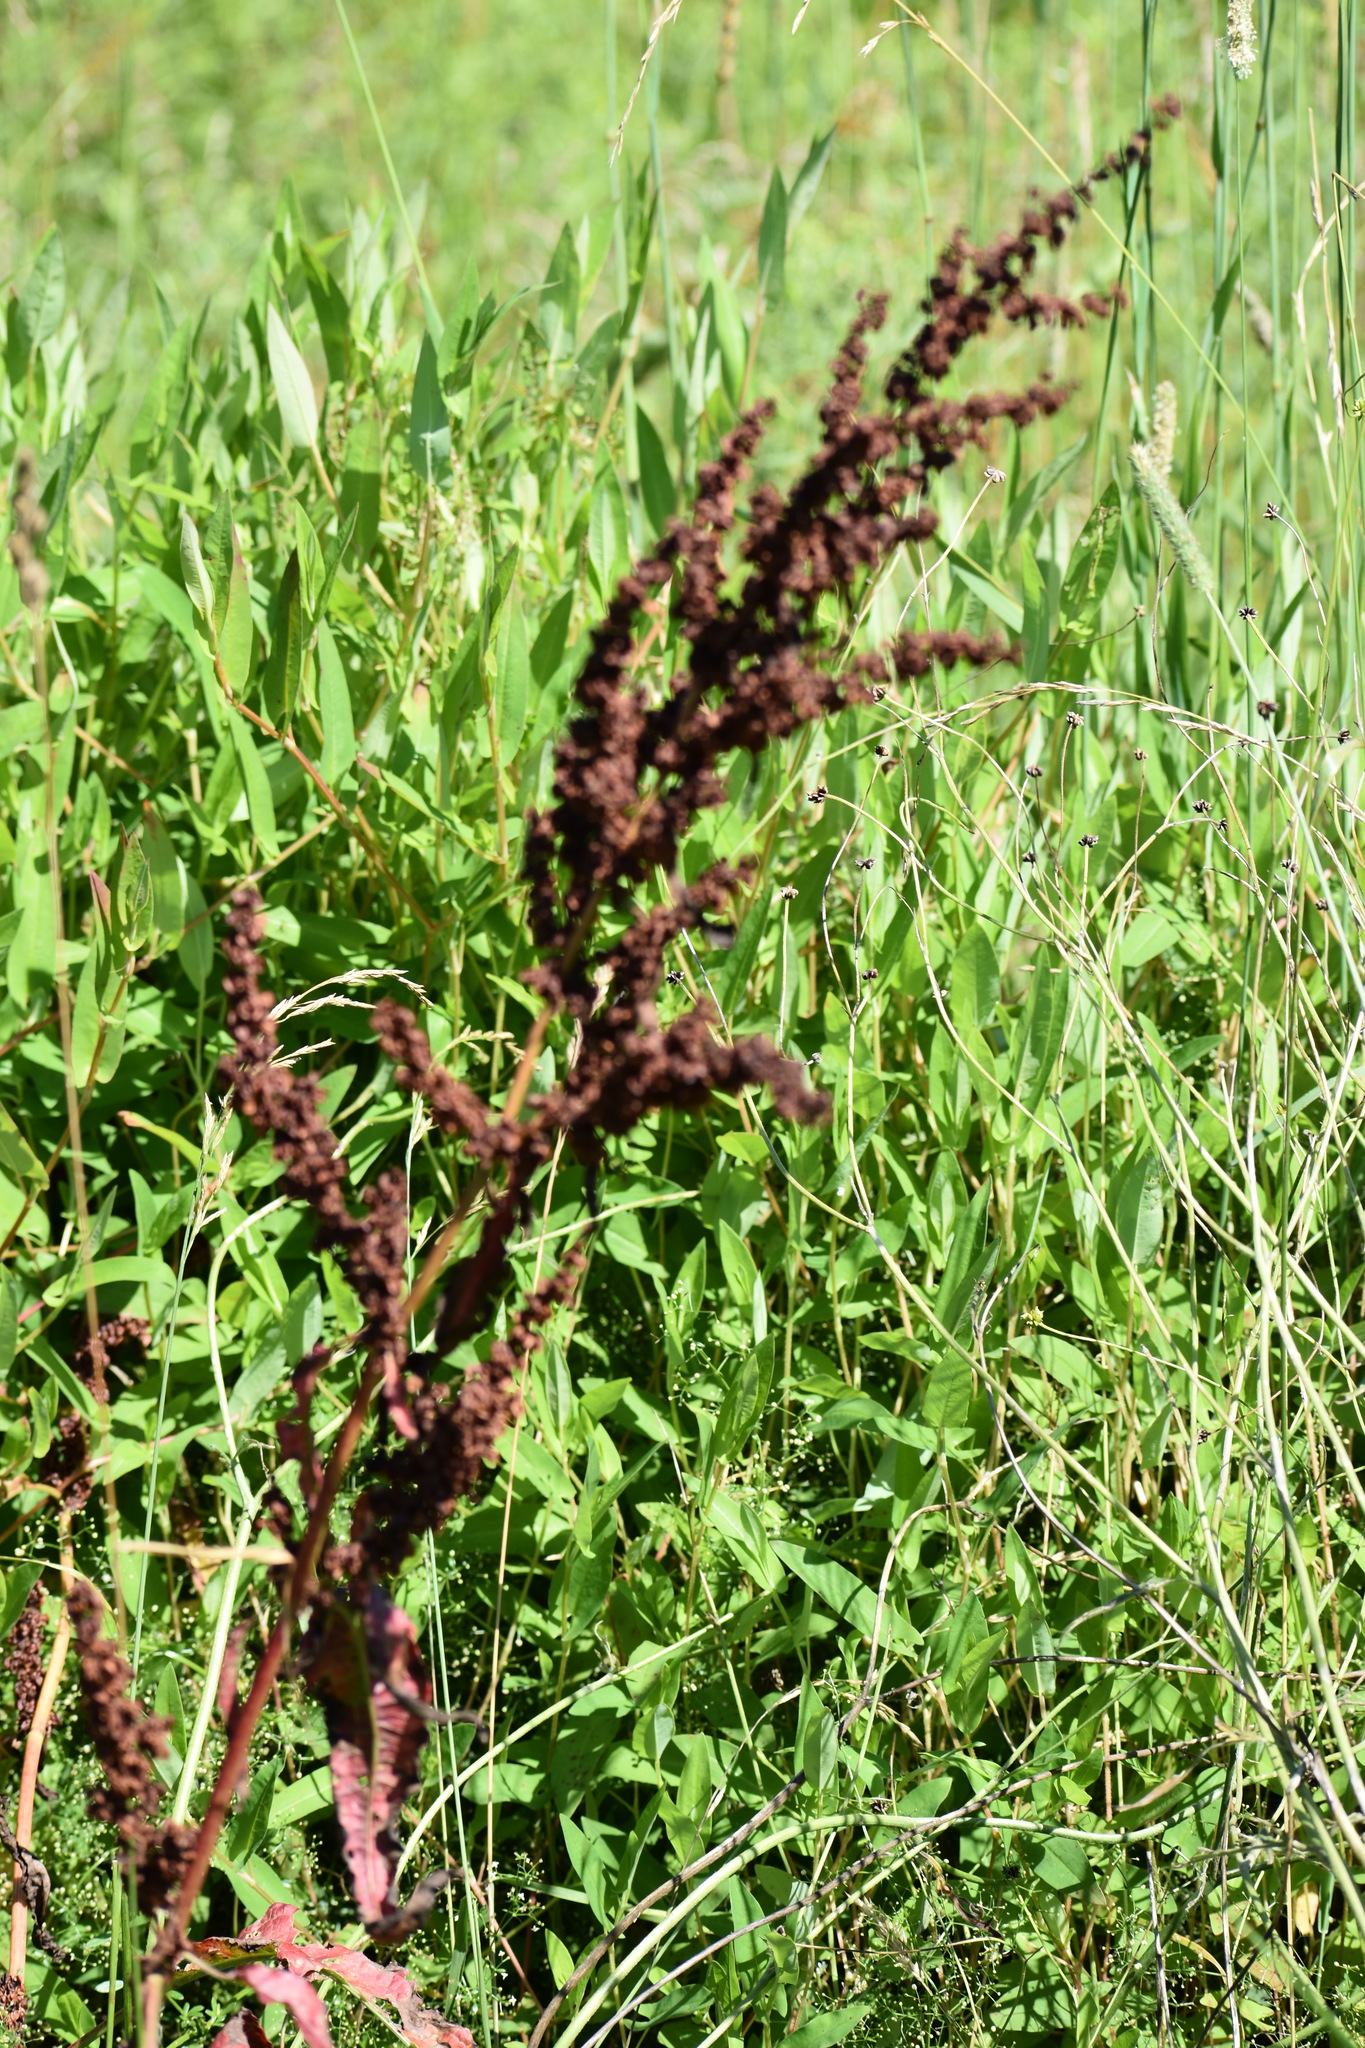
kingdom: Plantae
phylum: Tracheophyta
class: Magnoliopsida
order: Caryophyllales
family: Polygonaceae
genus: Rumex
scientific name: Rumex crispus
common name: Curled dock
